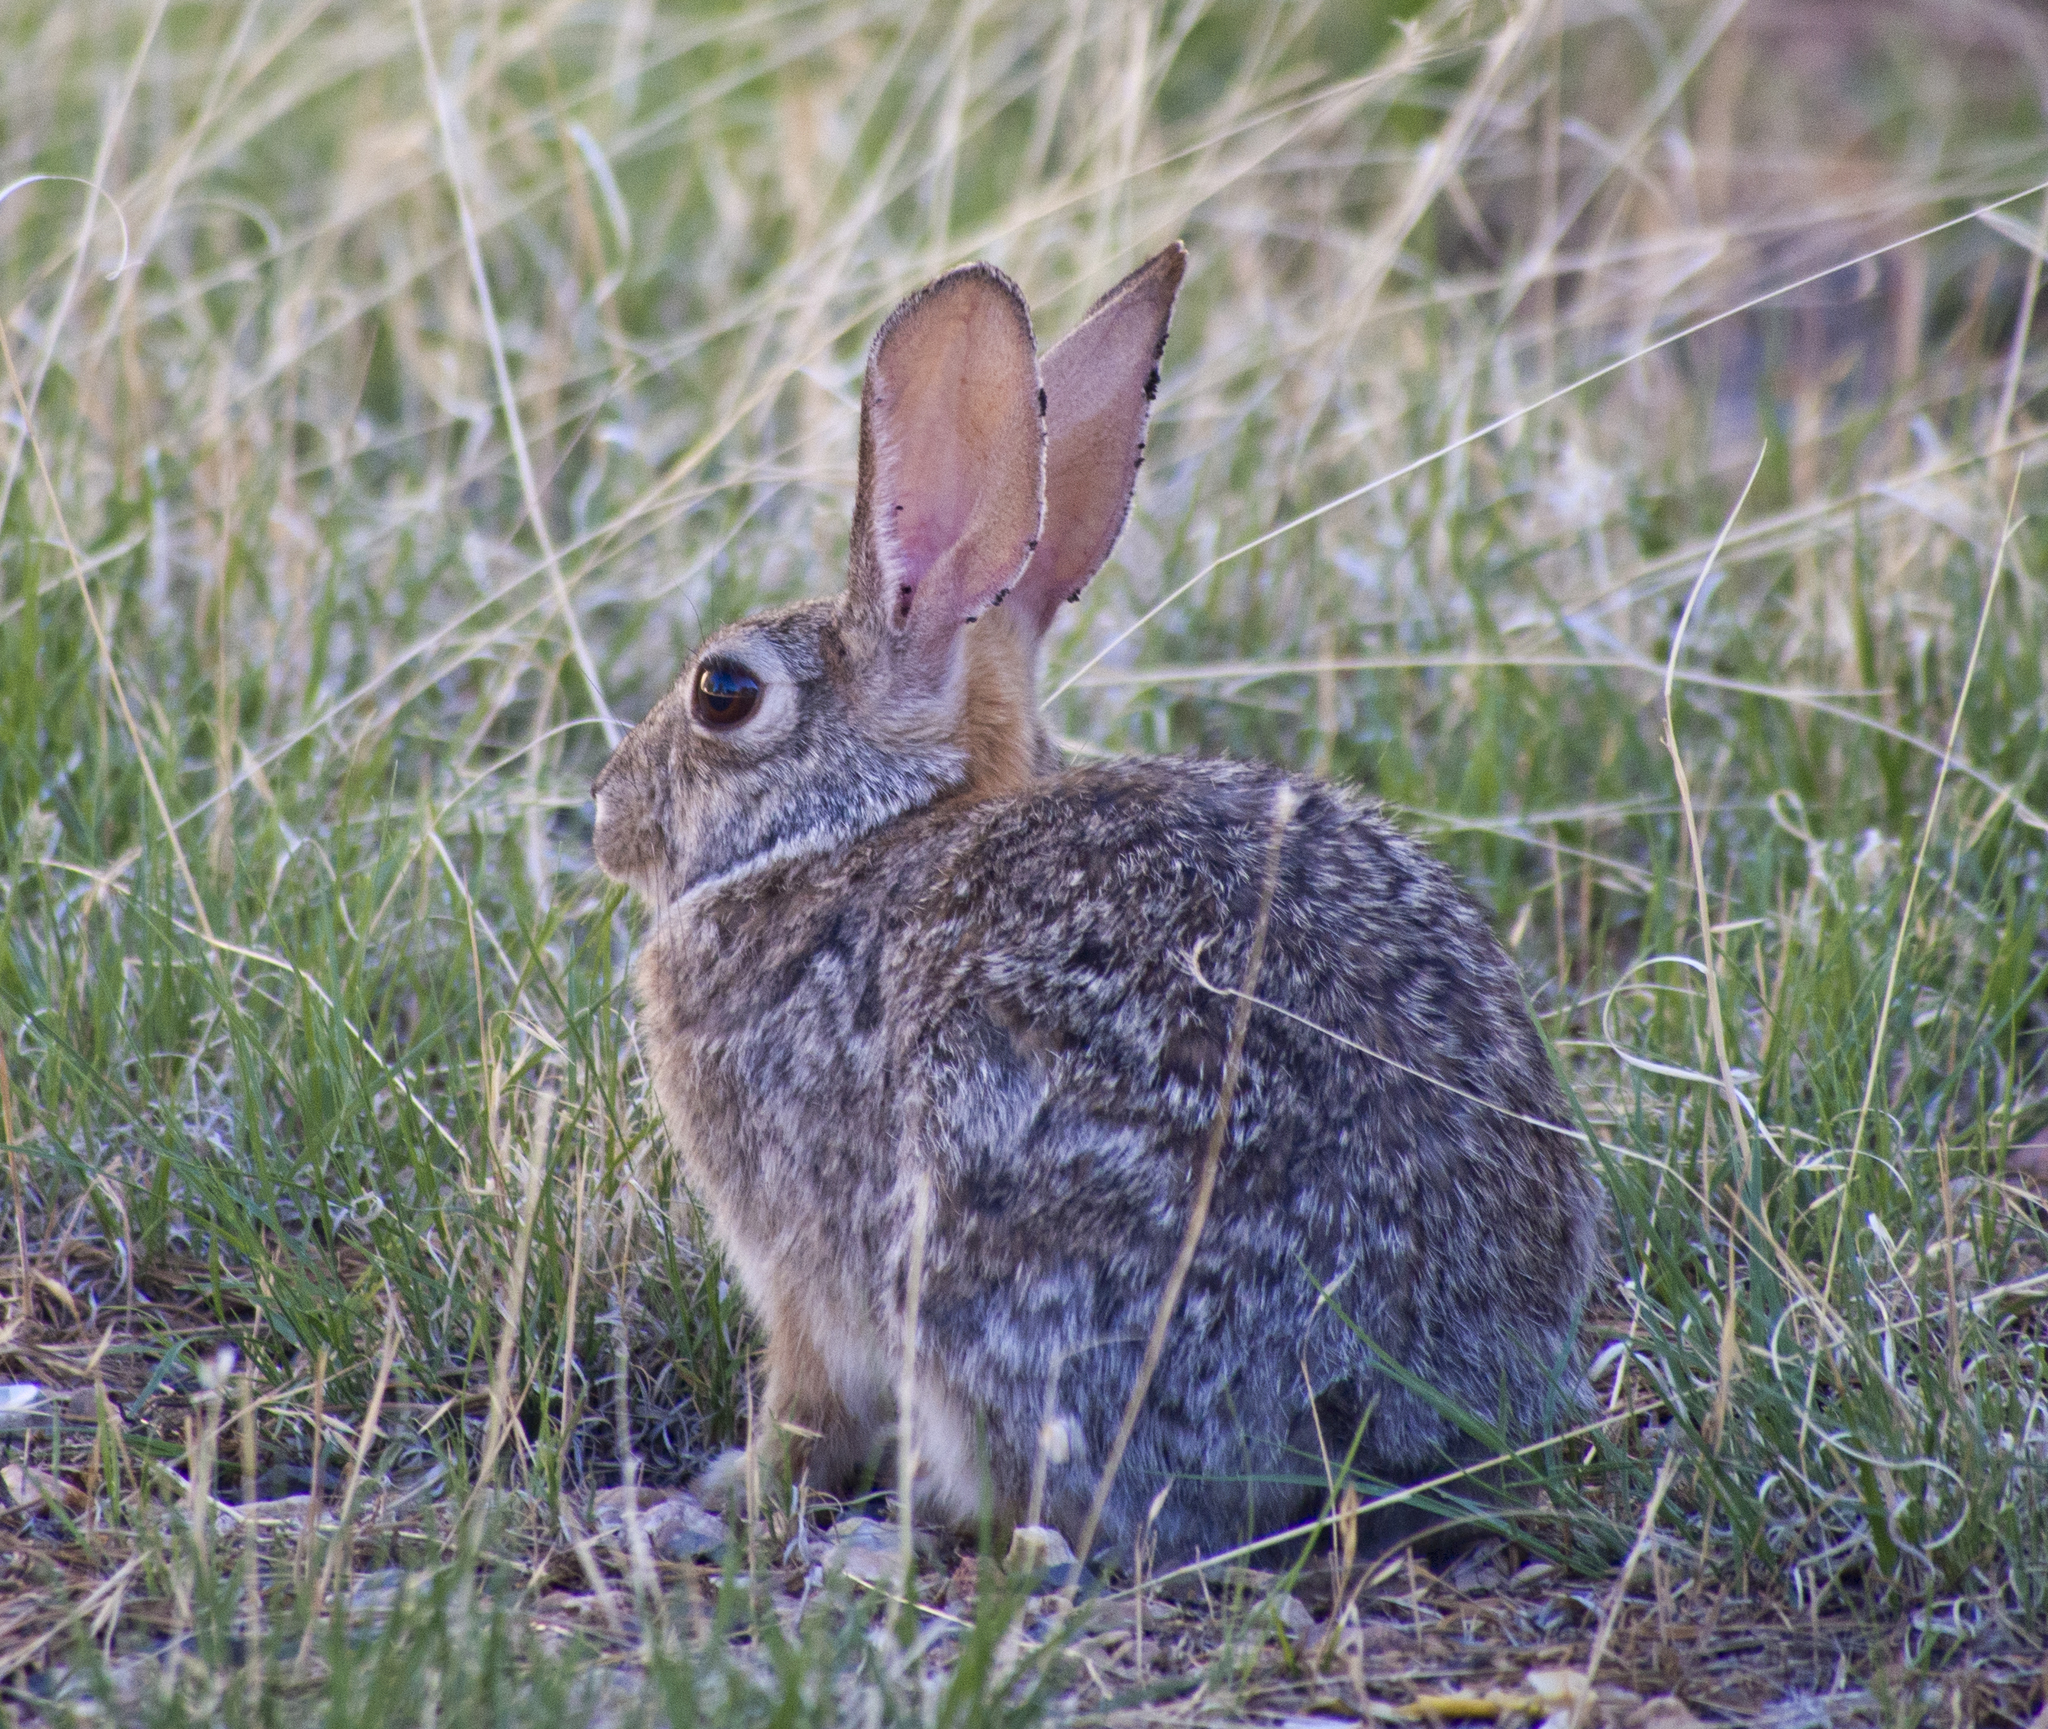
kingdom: Animalia
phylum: Chordata
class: Mammalia
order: Lagomorpha
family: Leporidae
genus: Sylvilagus
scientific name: Sylvilagus audubonii
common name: Desert cottontail
